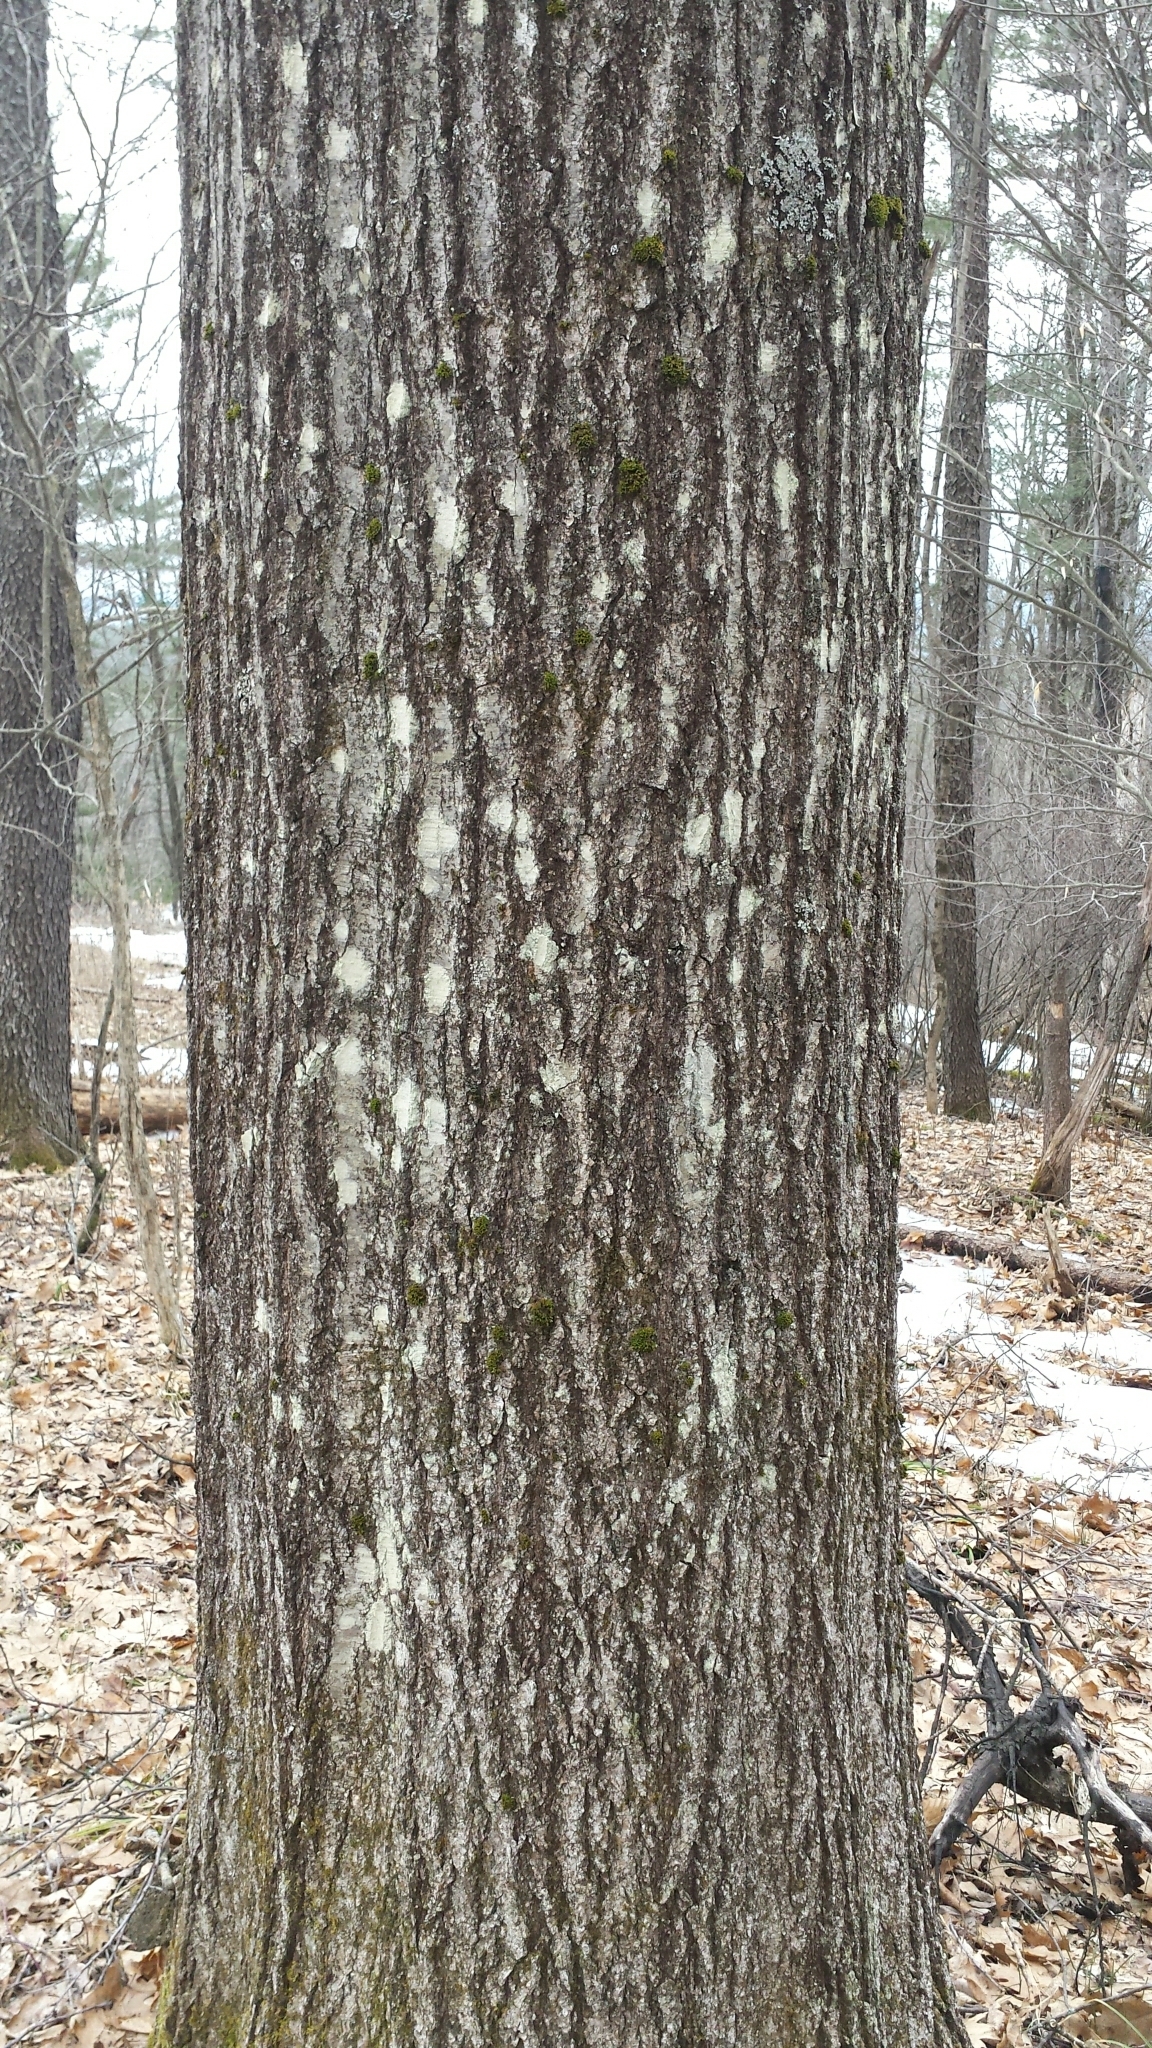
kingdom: Plantae
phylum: Tracheophyta
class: Magnoliopsida
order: Fagales
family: Fagaceae
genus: Quercus
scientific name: Quercus rubra
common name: Red oak
